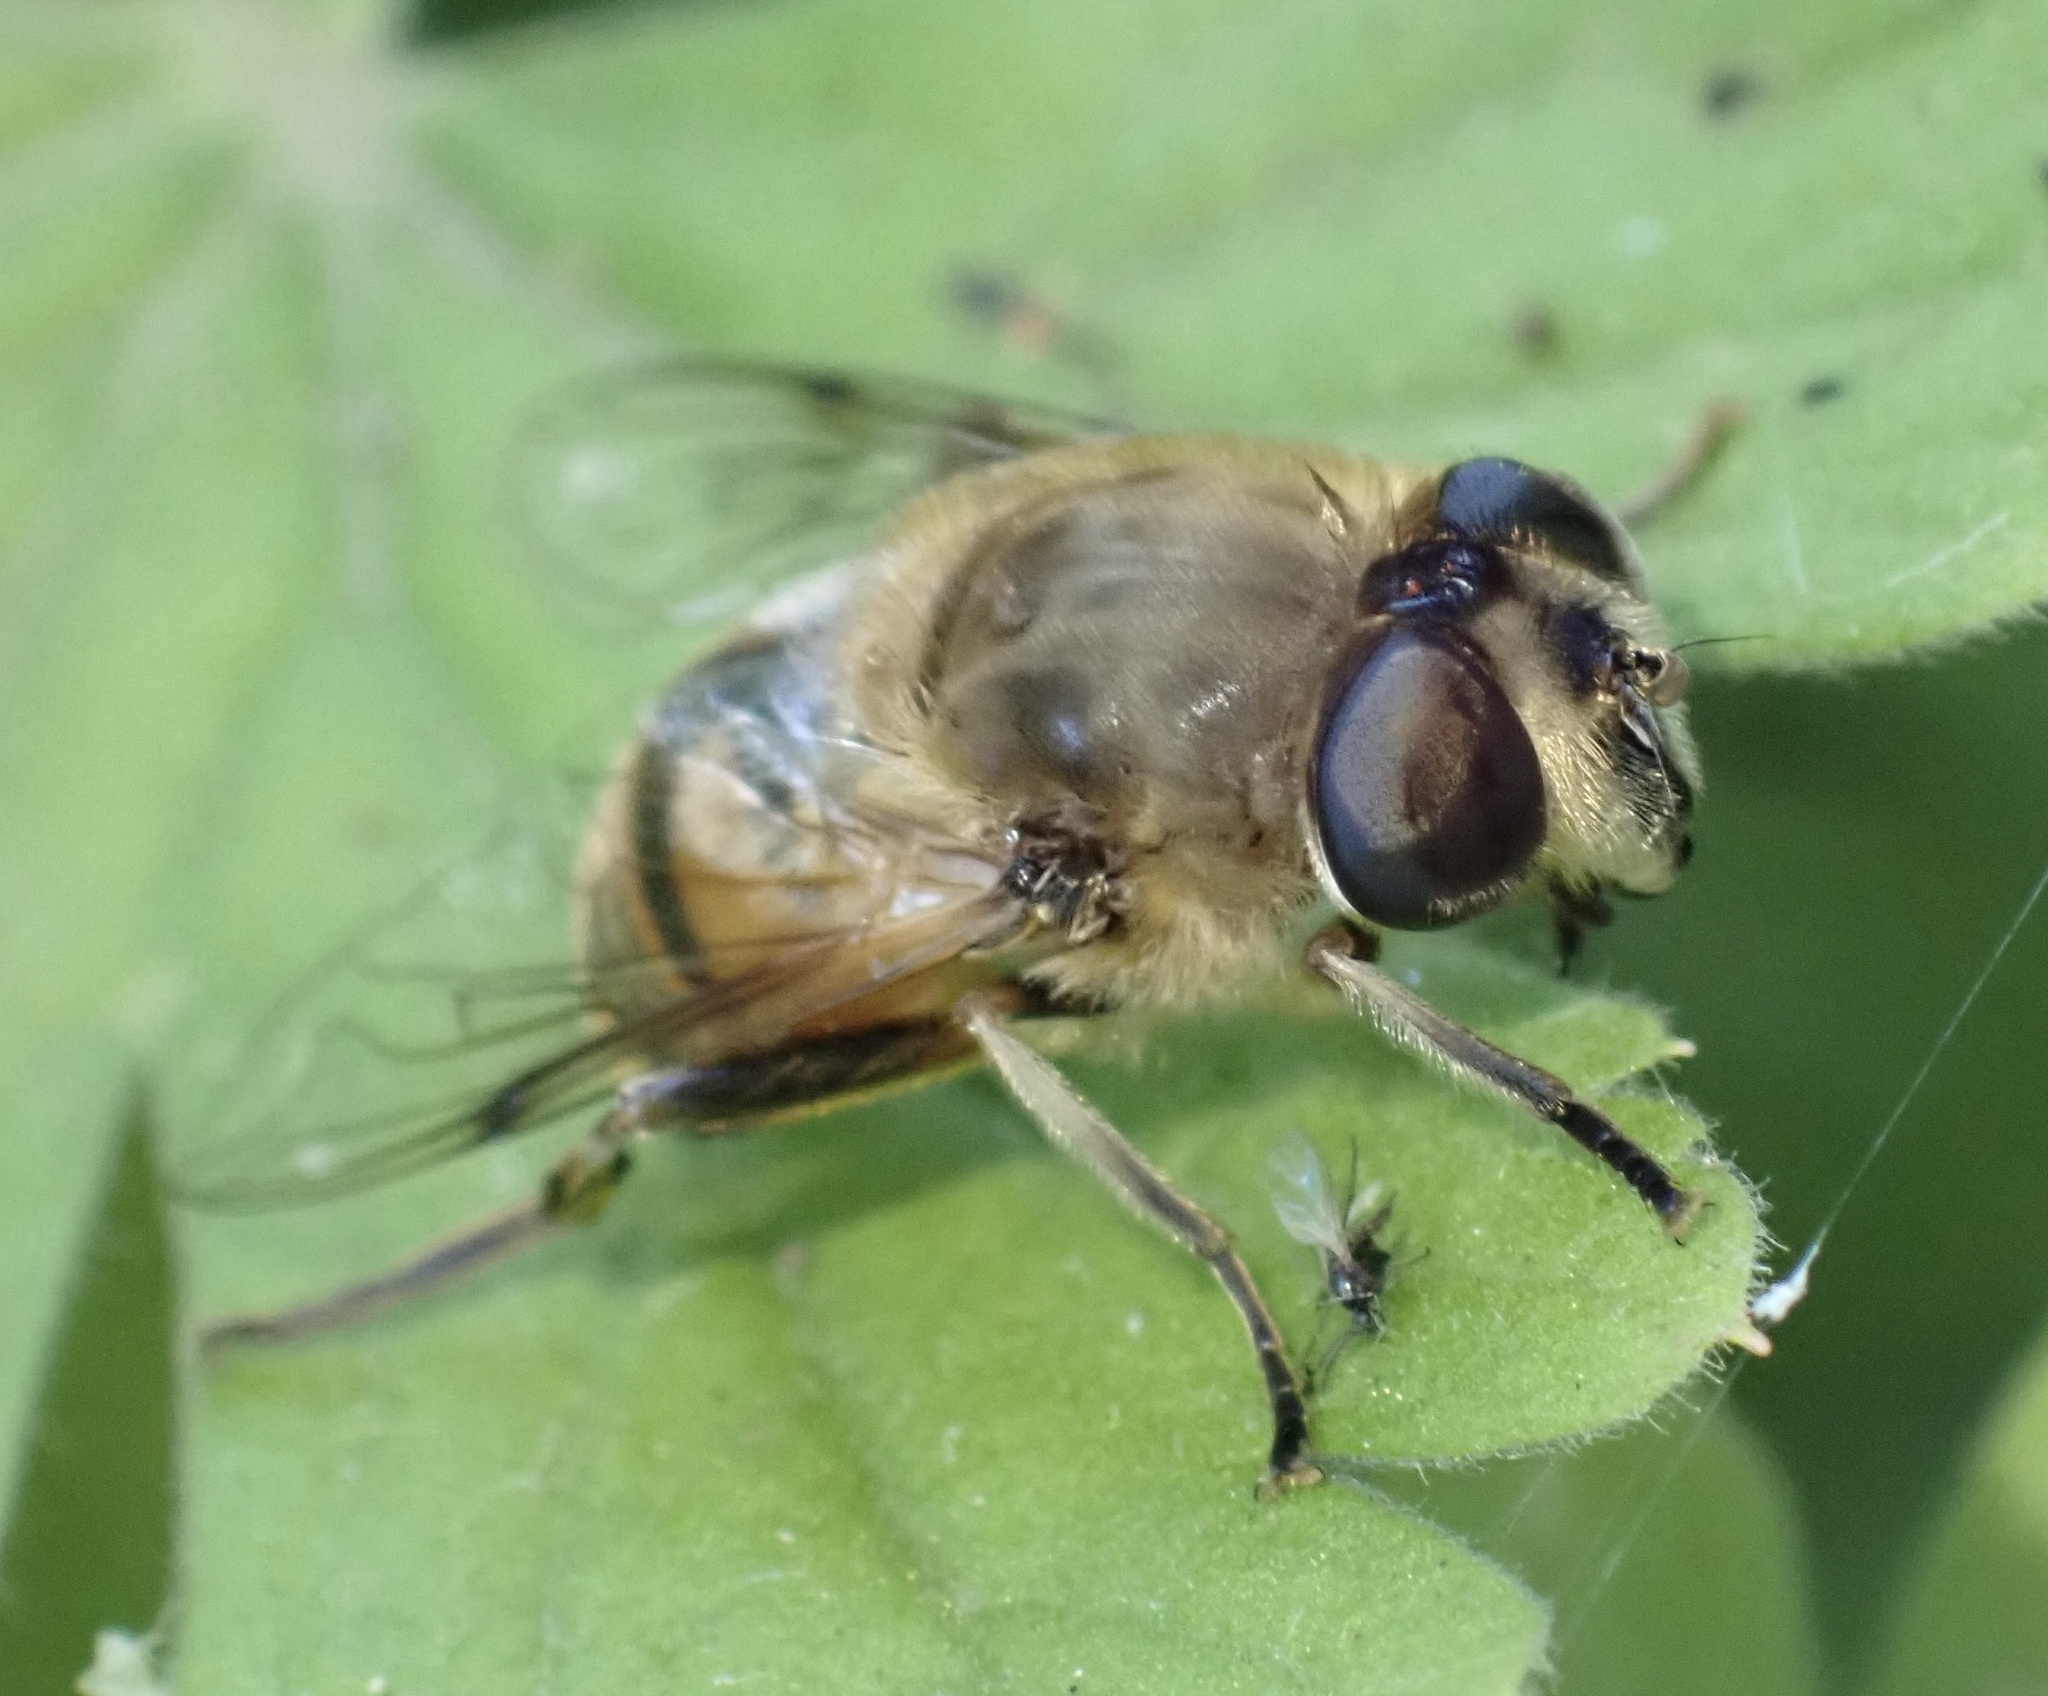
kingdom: Animalia
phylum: Arthropoda
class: Insecta
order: Diptera
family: Syrphidae
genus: Eristalis
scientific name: Eristalis tenax
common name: Drone fly
